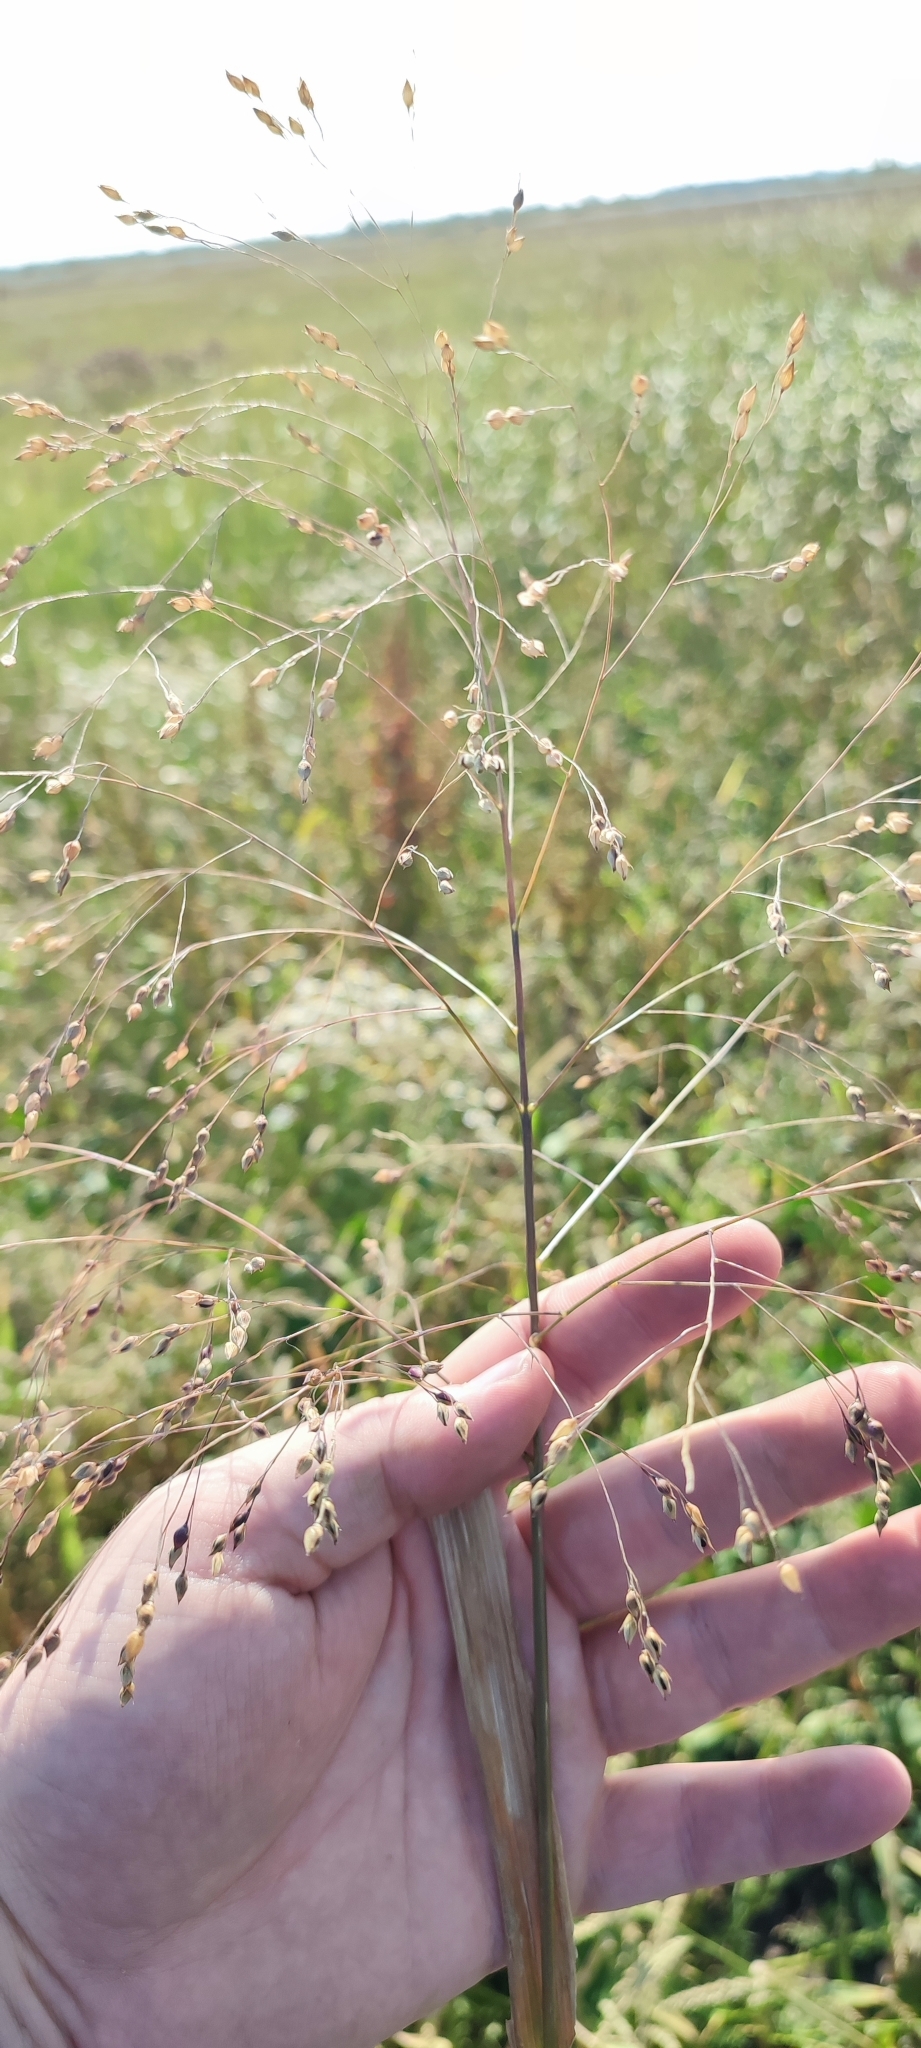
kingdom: Plantae
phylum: Tracheophyta
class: Liliopsida
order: Poales
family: Poaceae
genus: Panicum
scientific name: Panicum miliaceum
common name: Common millet
